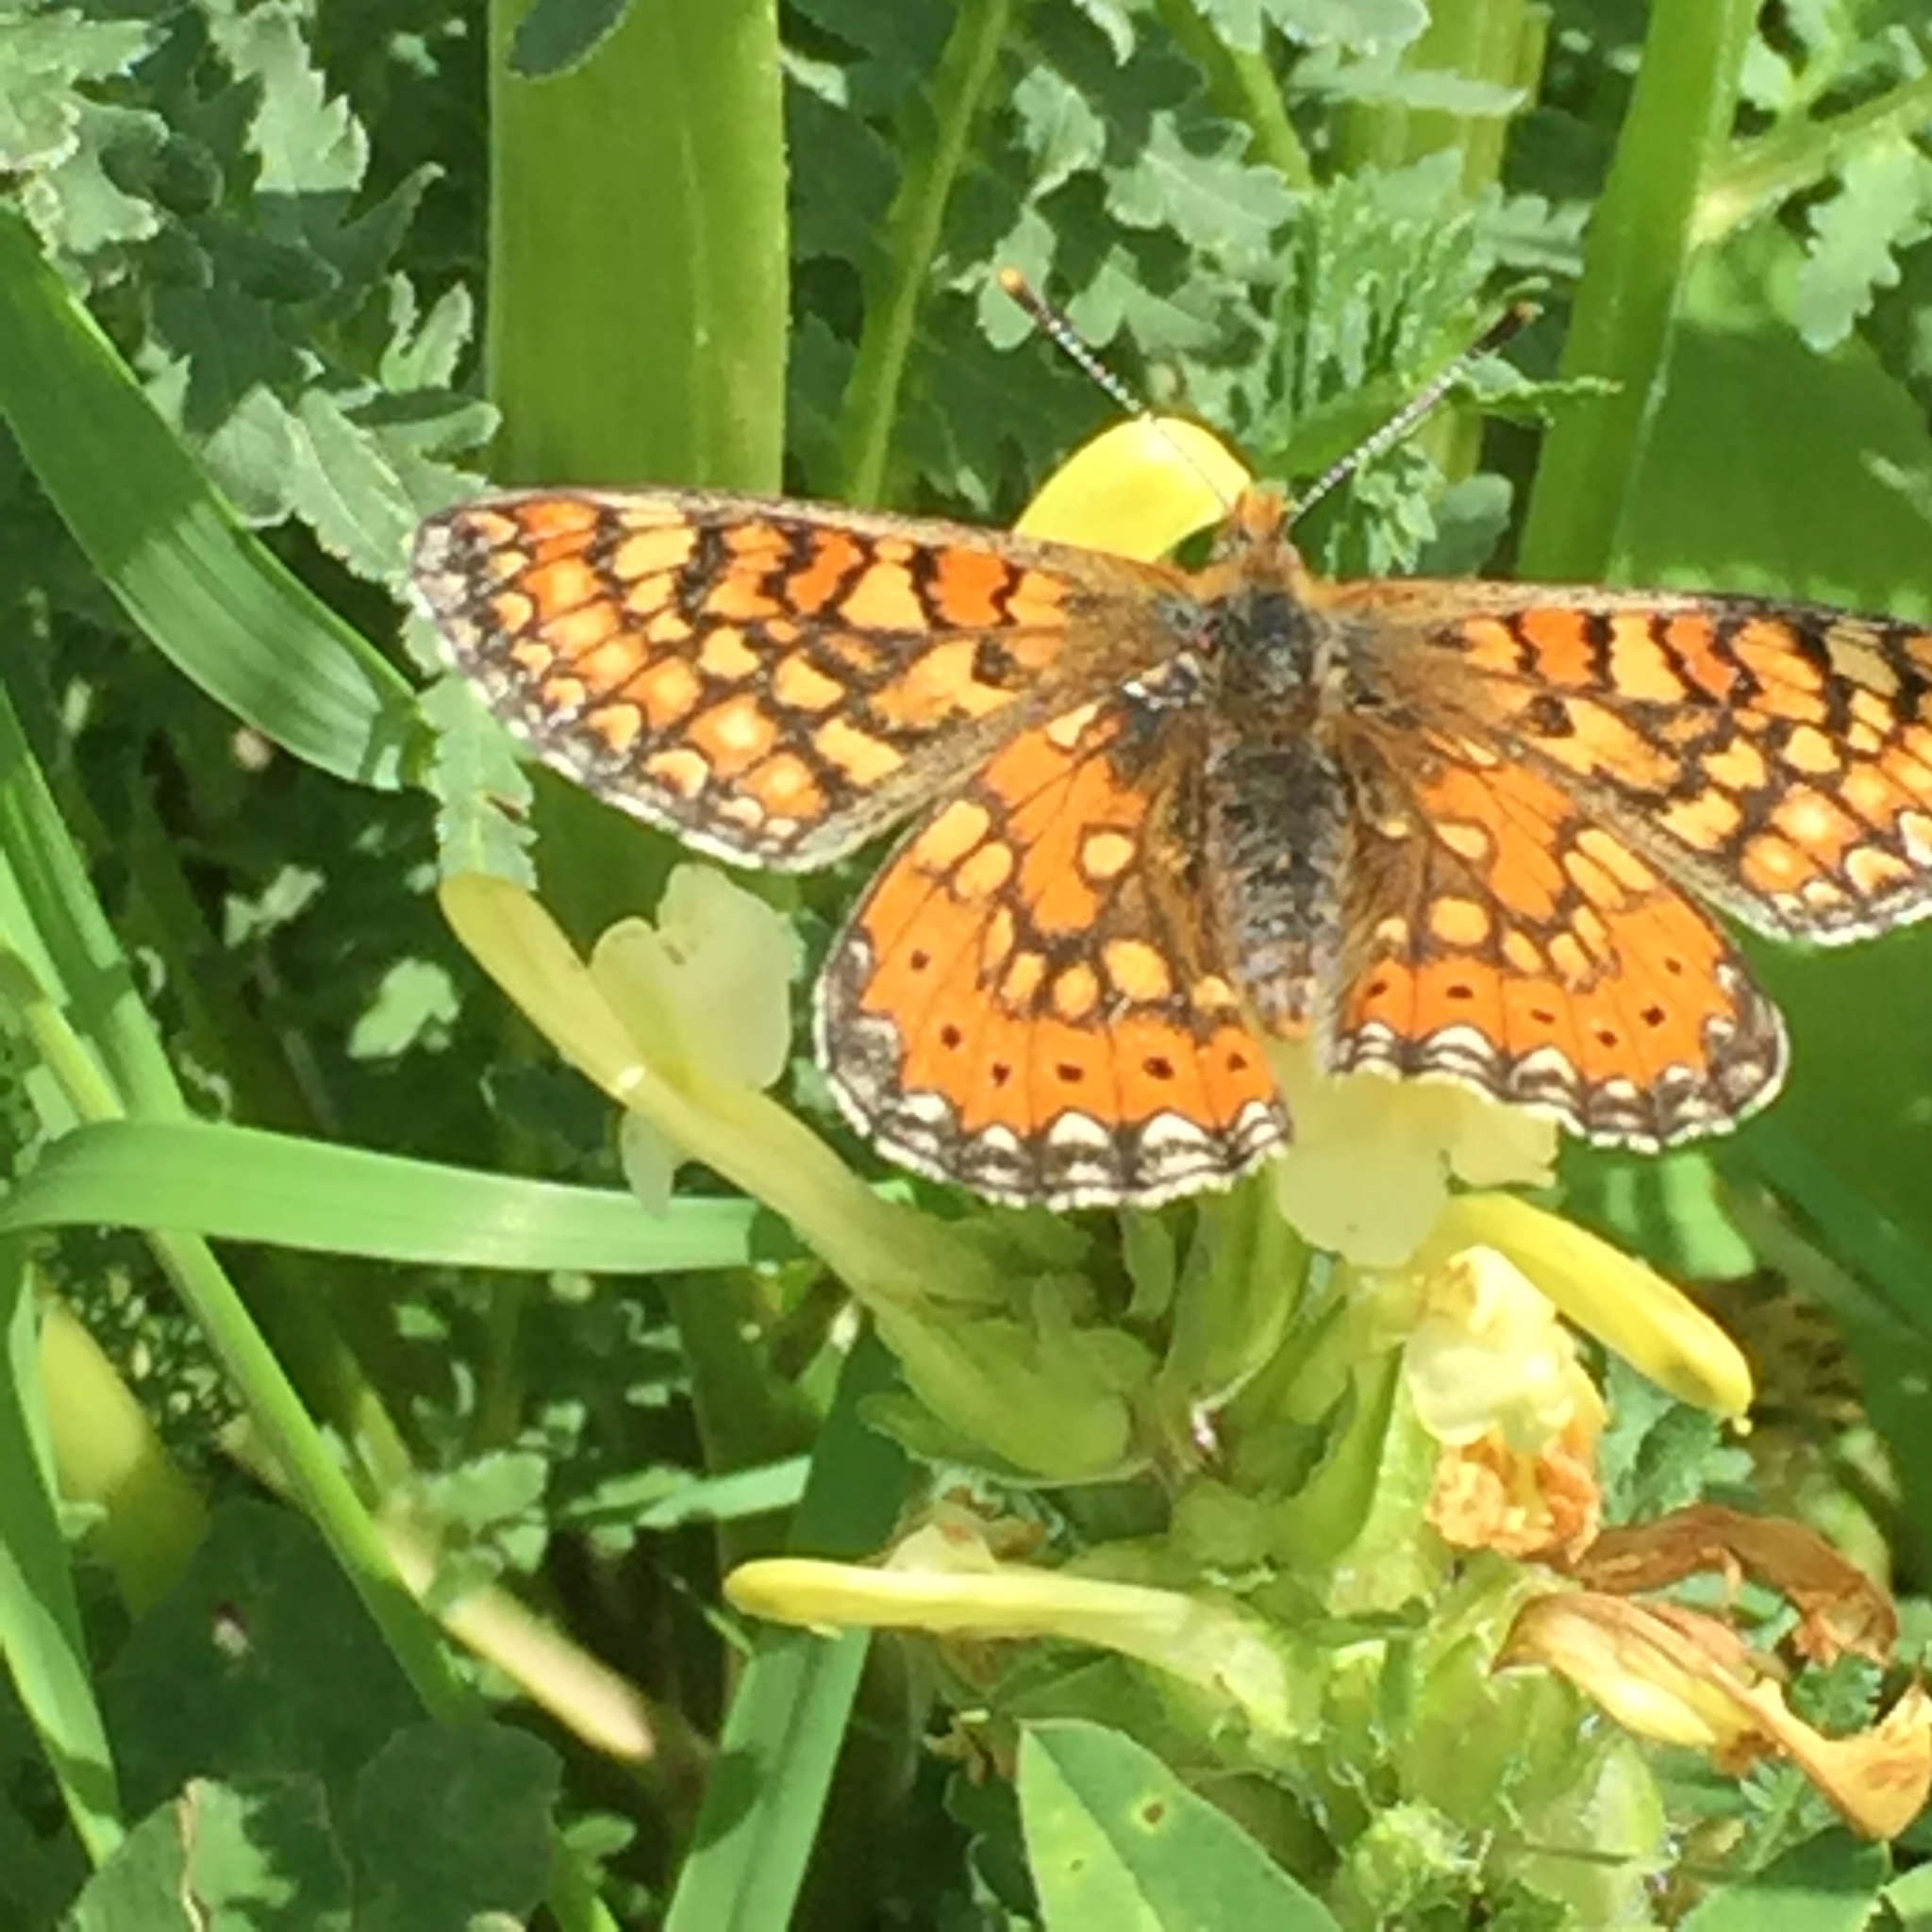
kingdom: Animalia
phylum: Arthropoda
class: Insecta
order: Lepidoptera
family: Nymphalidae
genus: Euphydryas
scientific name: Euphydryas aurinia
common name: Marsh fritillary
